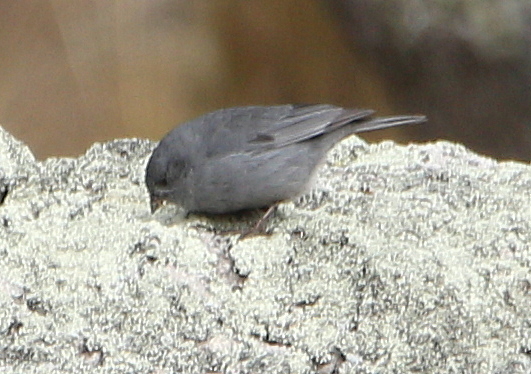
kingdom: Animalia
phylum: Chordata
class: Aves
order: Passeriformes
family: Thraupidae
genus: Geospizopsis
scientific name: Geospizopsis unicolor
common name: Plumbeous sierra-finch
